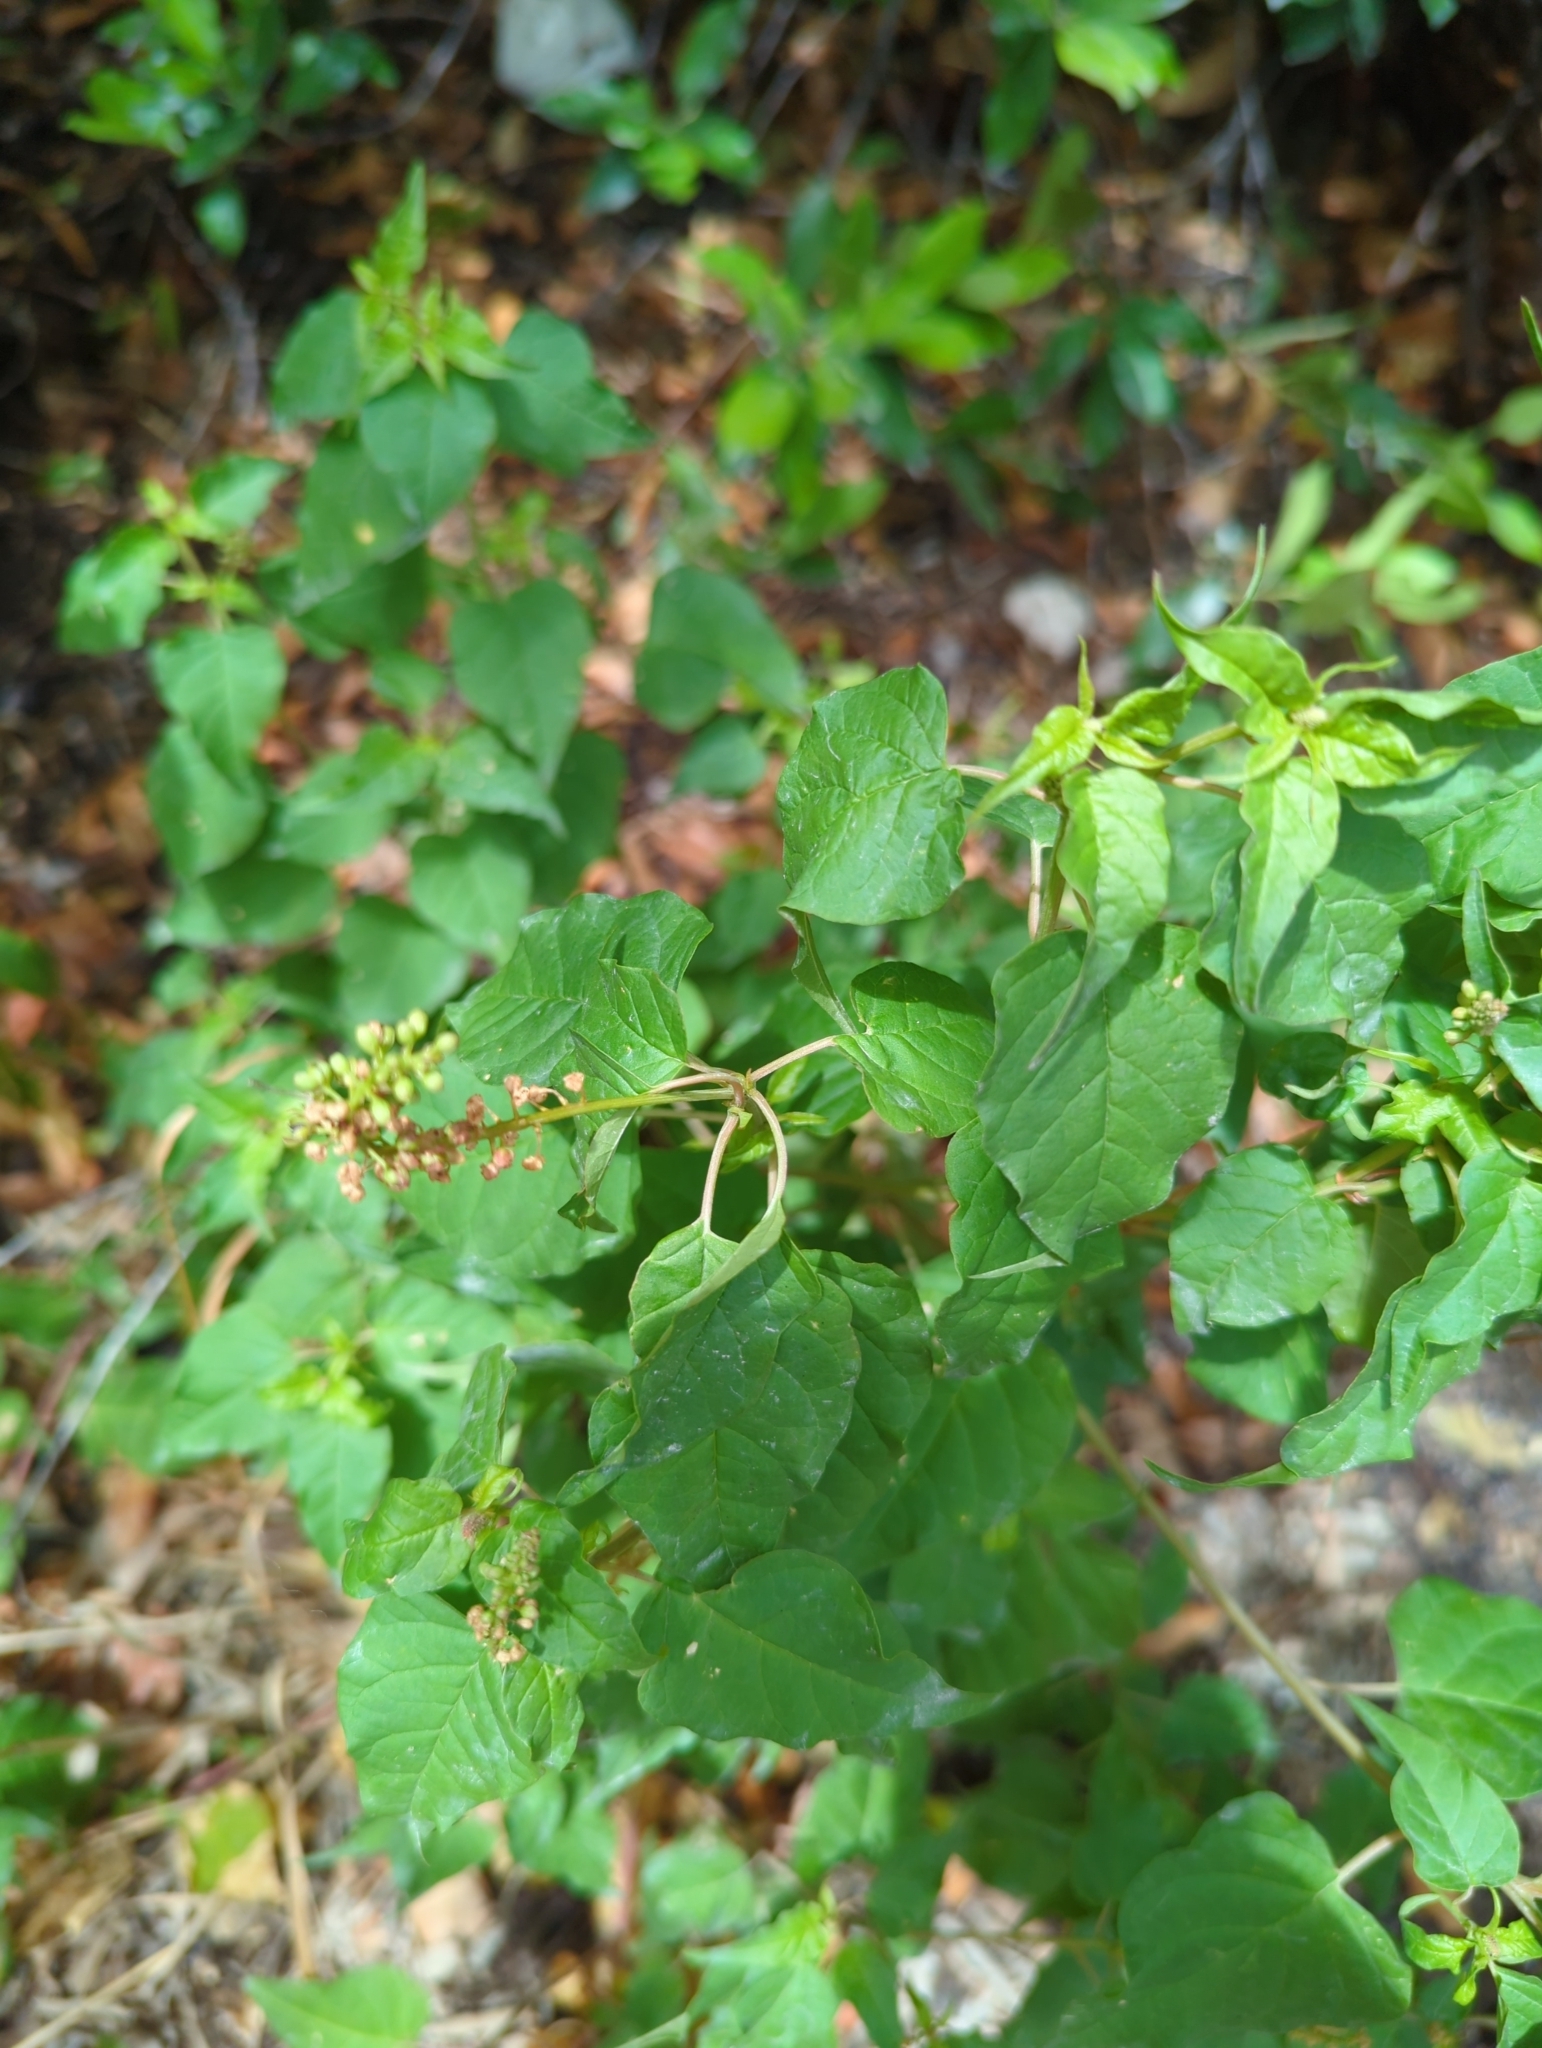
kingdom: Plantae
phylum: Tracheophyta
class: Magnoliopsida
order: Caryophyllales
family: Phytolaccaceae
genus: Rivina
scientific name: Rivina humilis
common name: Rougeplant
